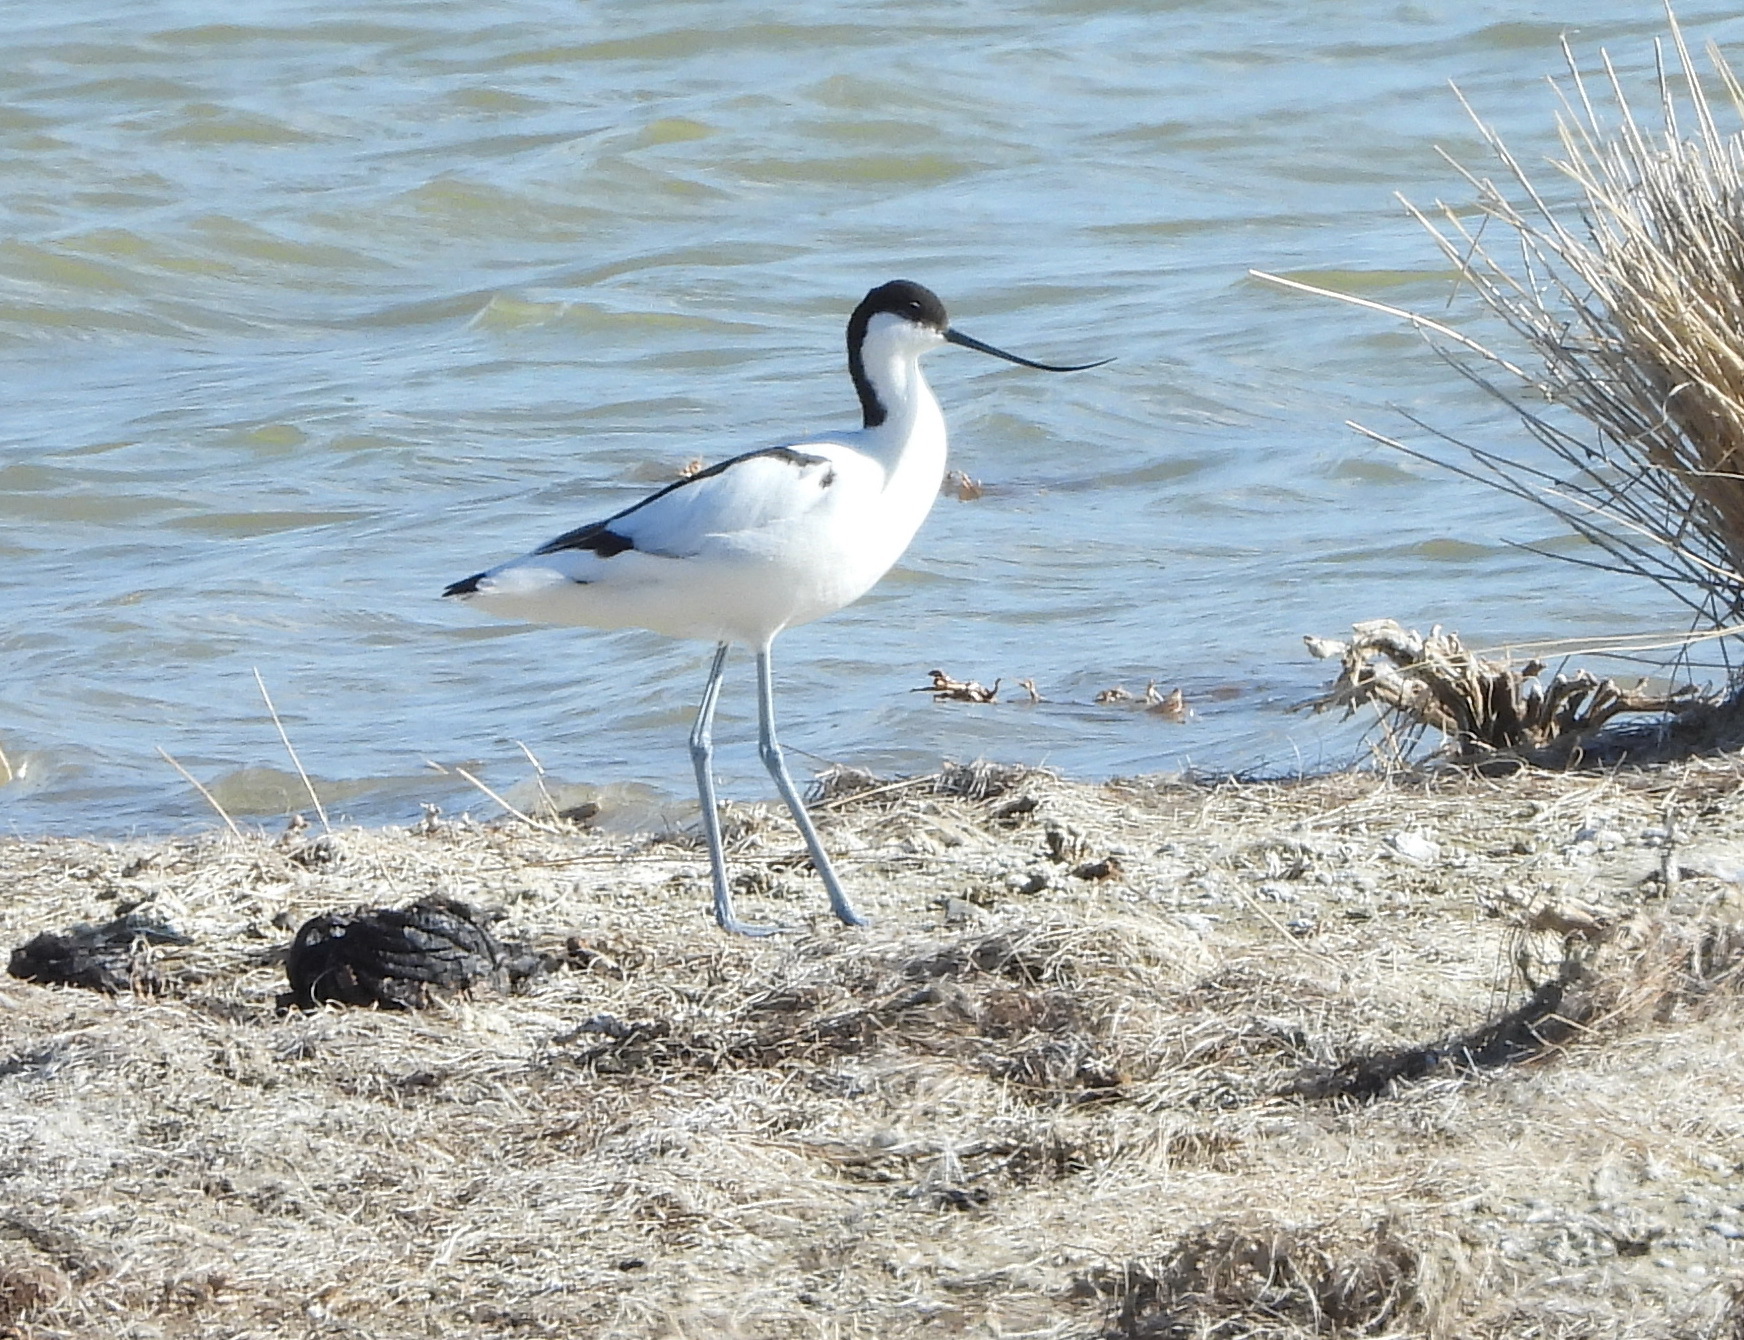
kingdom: Animalia
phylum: Chordata
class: Aves
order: Charadriiformes
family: Recurvirostridae
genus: Recurvirostra
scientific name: Recurvirostra avosetta
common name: Pied avocet
